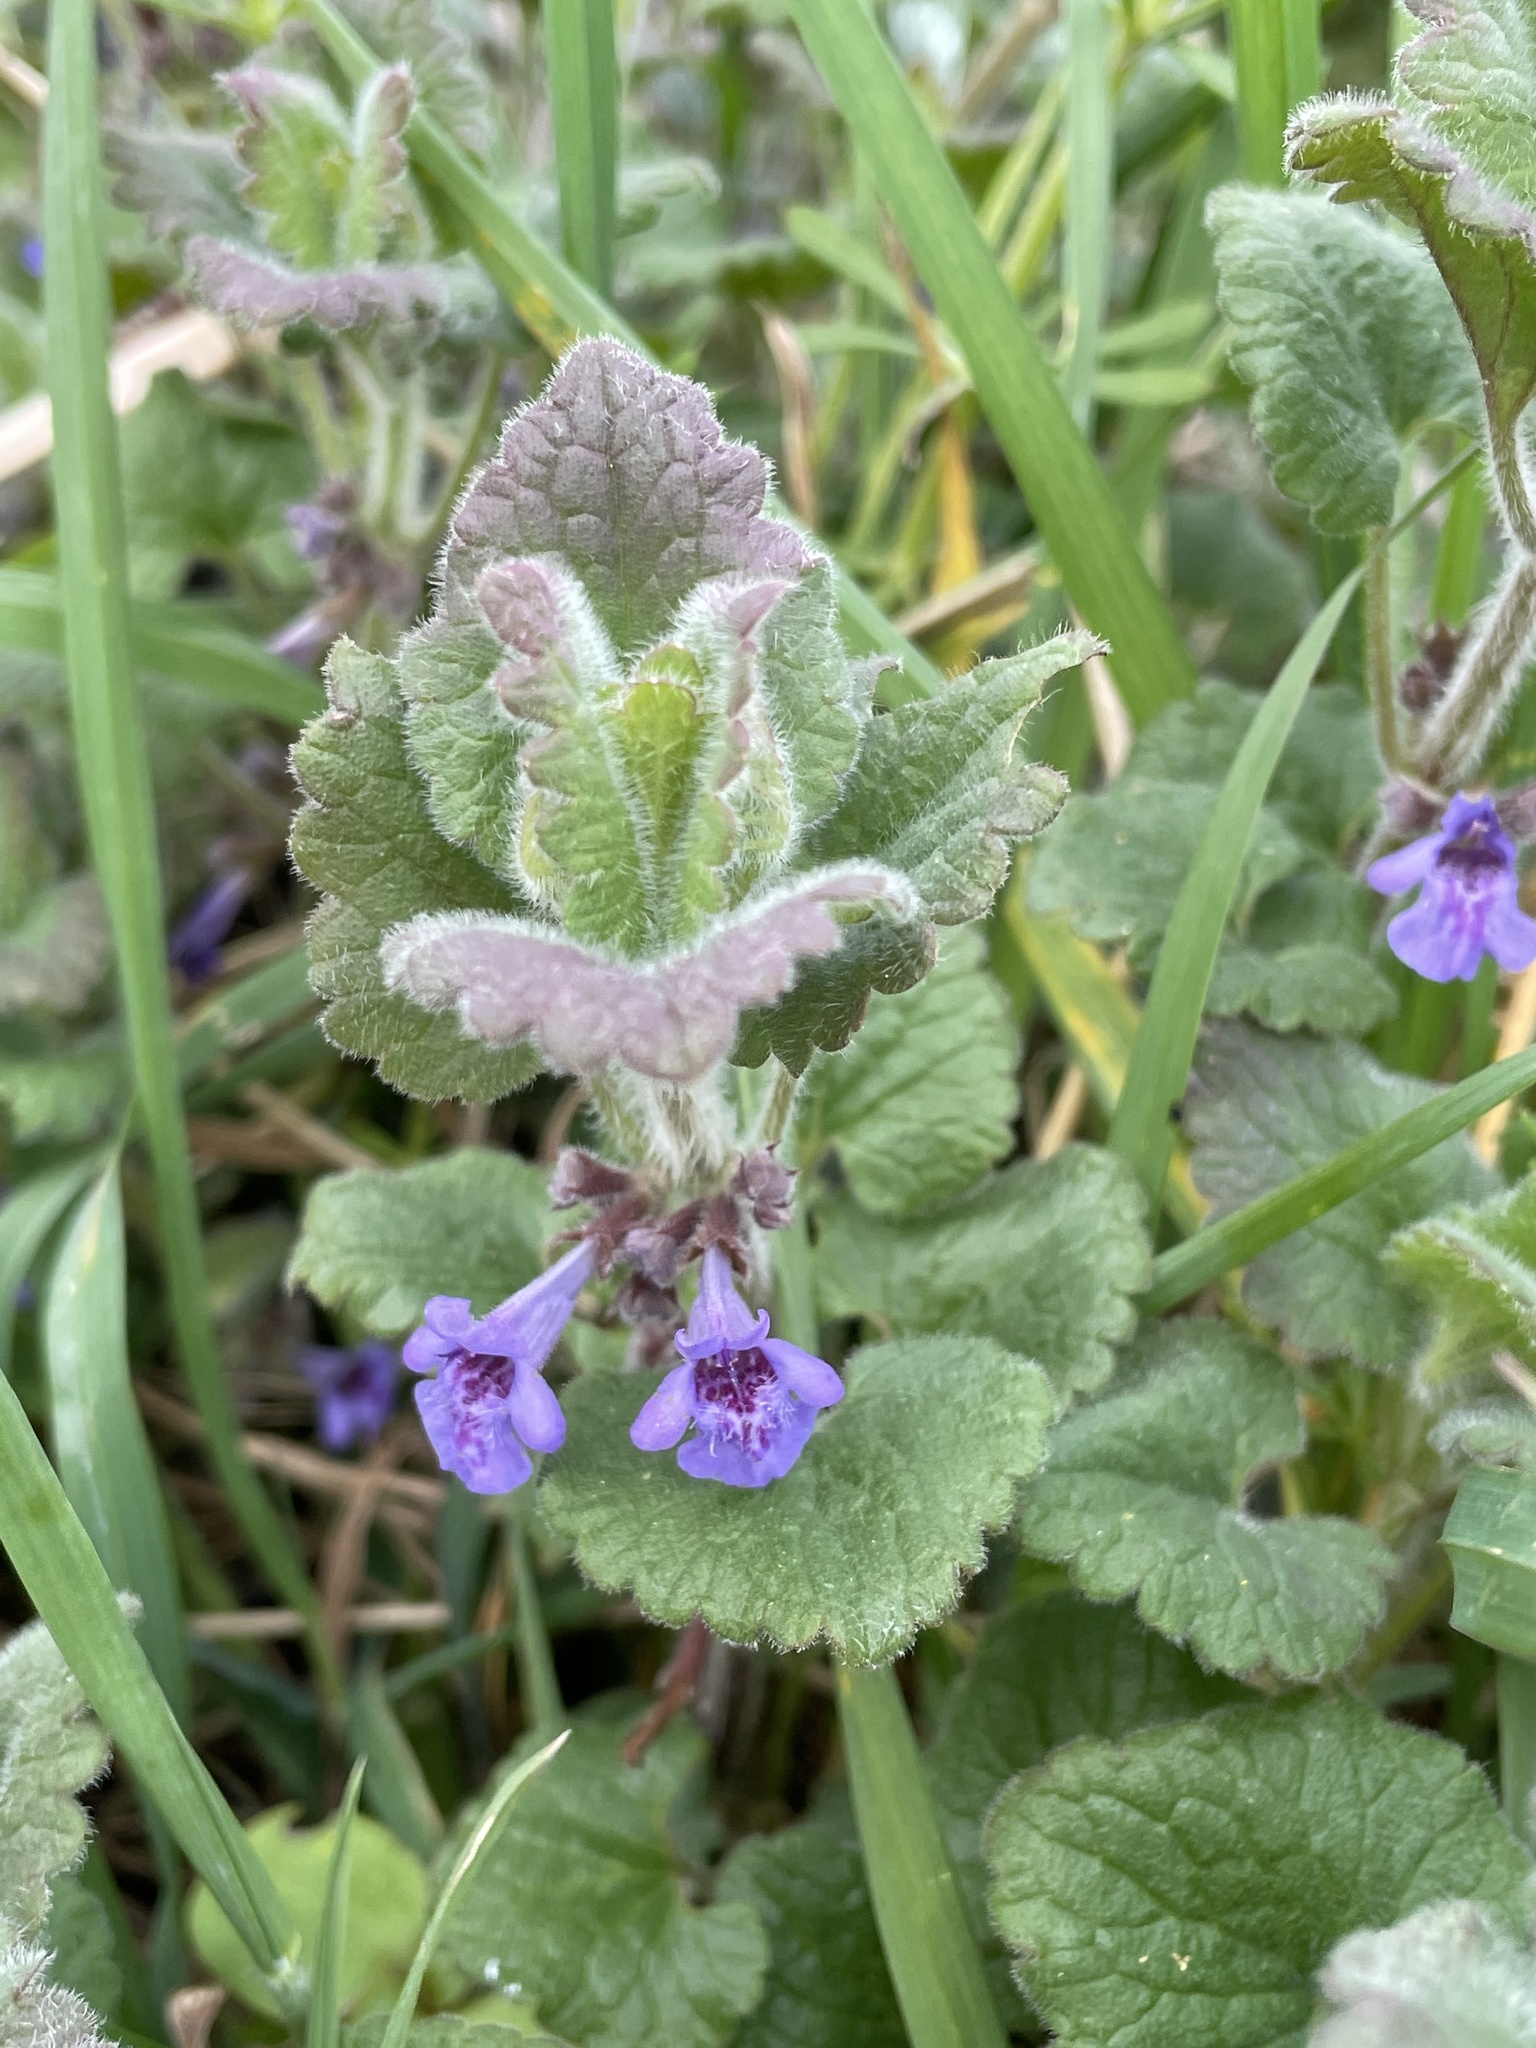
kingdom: Plantae
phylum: Tracheophyta
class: Magnoliopsida
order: Lamiales
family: Lamiaceae
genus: Glechoma
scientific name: Glechoma hederacea
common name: Ground ivy
